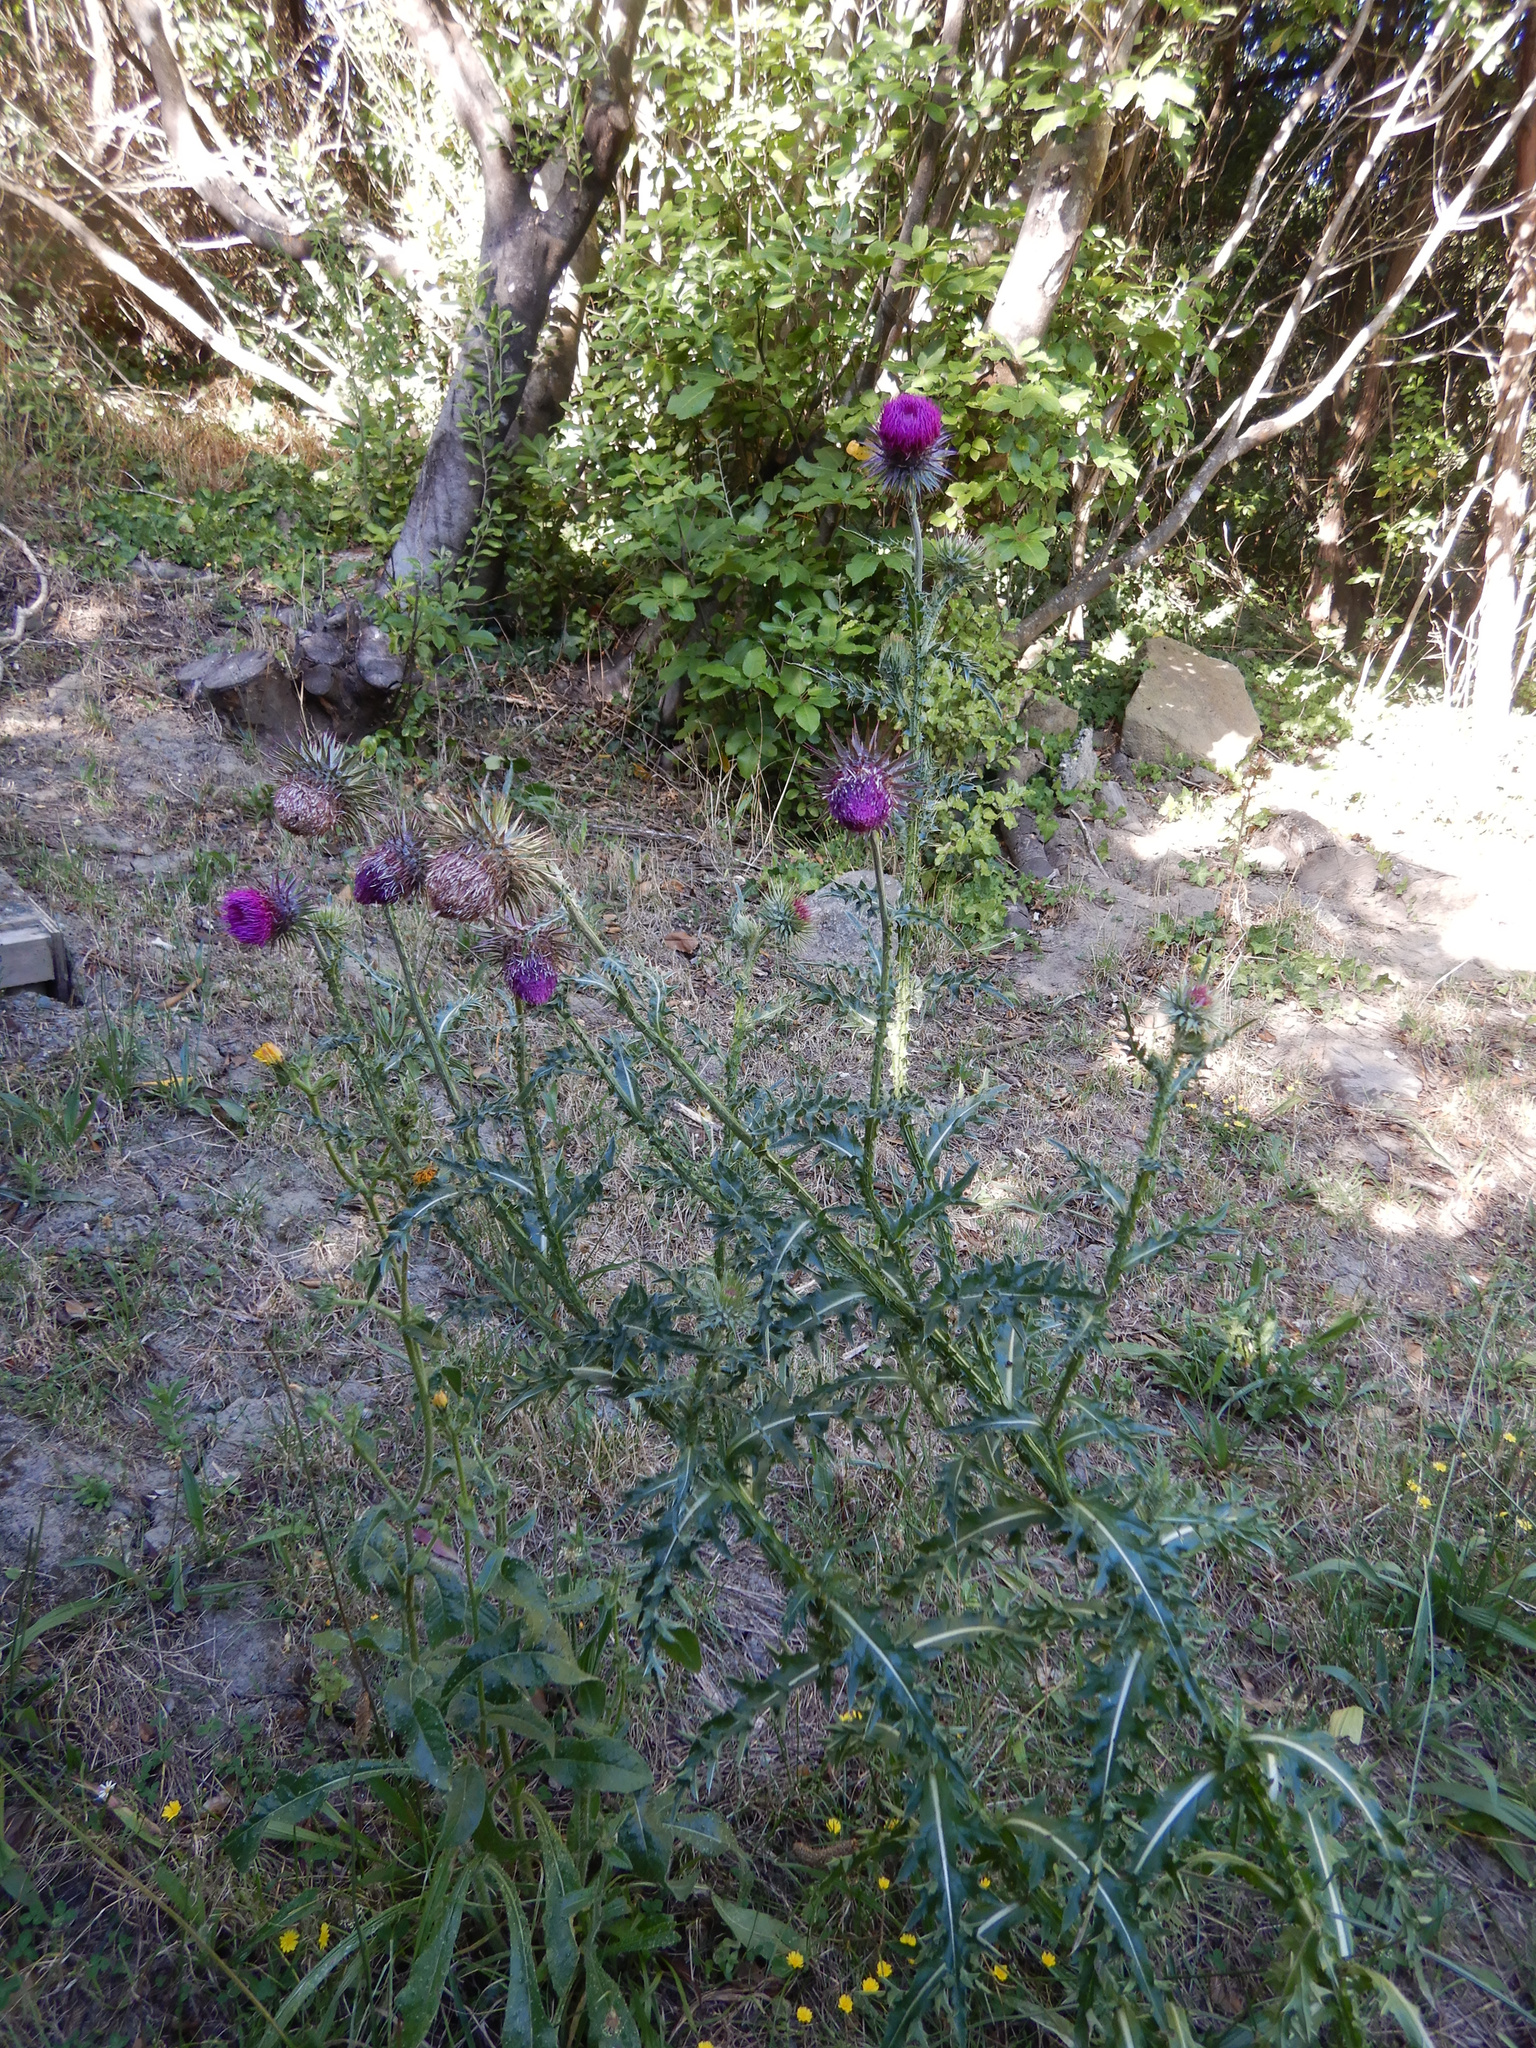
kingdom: Plantae
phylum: Tracheophyta
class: Magnoliopsida
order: Asterales
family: Asteraceae
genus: Carduus
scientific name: Carduus nutans
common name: Musk thistle
